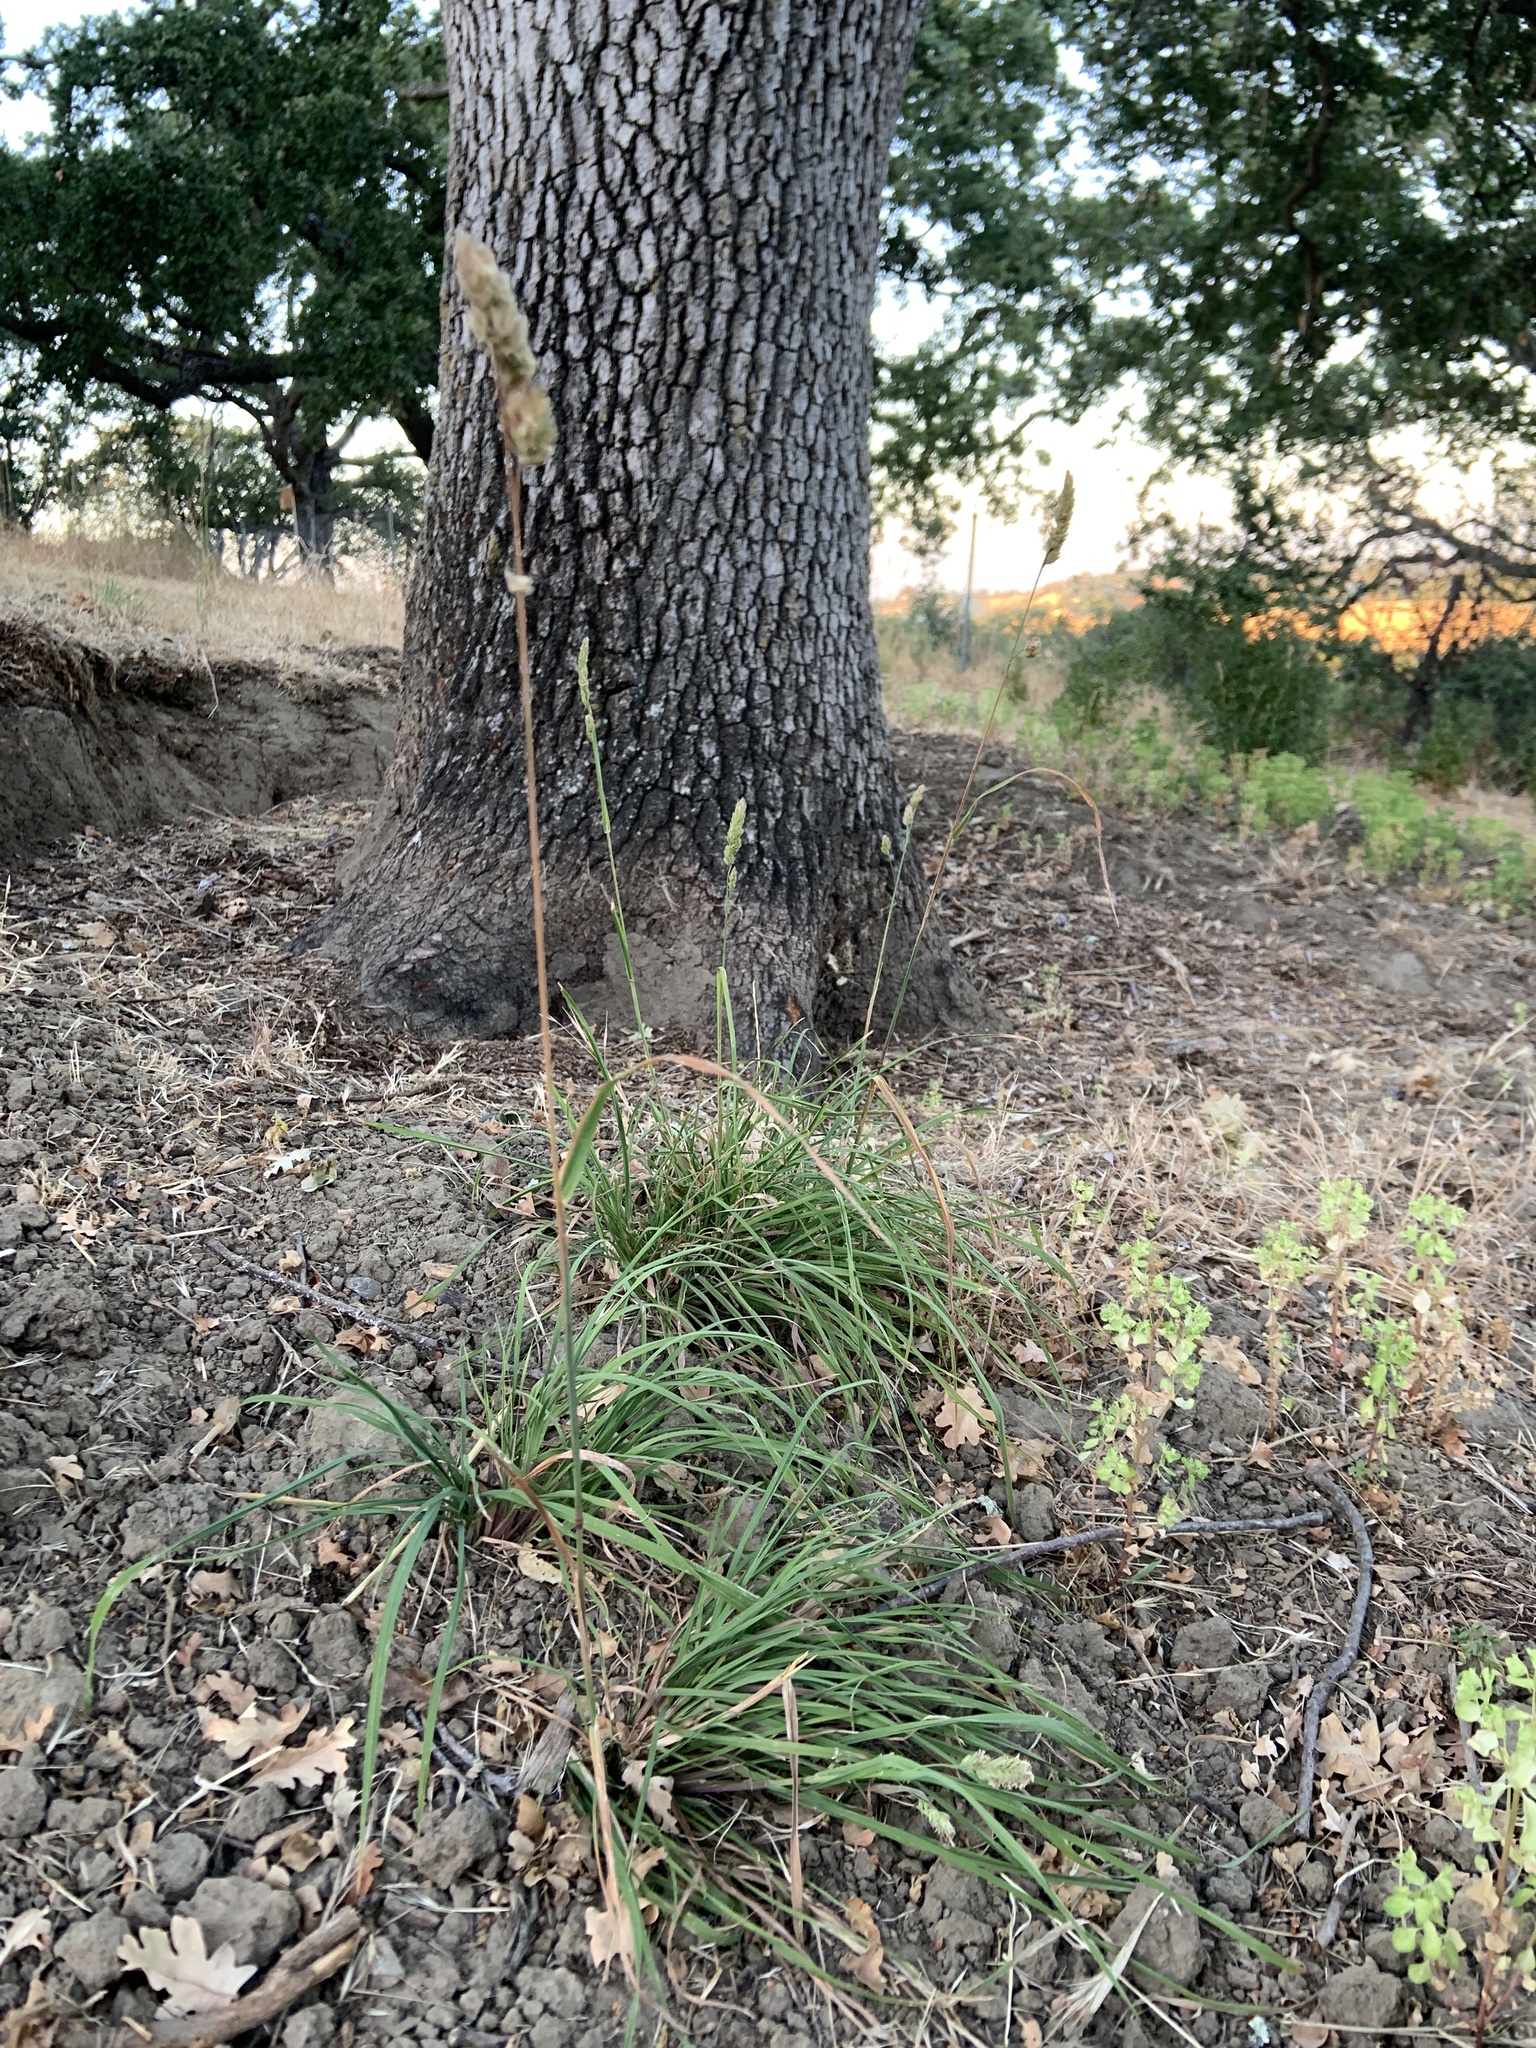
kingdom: Plantae
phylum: Tracheophyta
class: Liliopsida
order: Poales
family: Poaceae
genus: Dactylis
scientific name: Dactylis glomerata
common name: Orchardgrass
